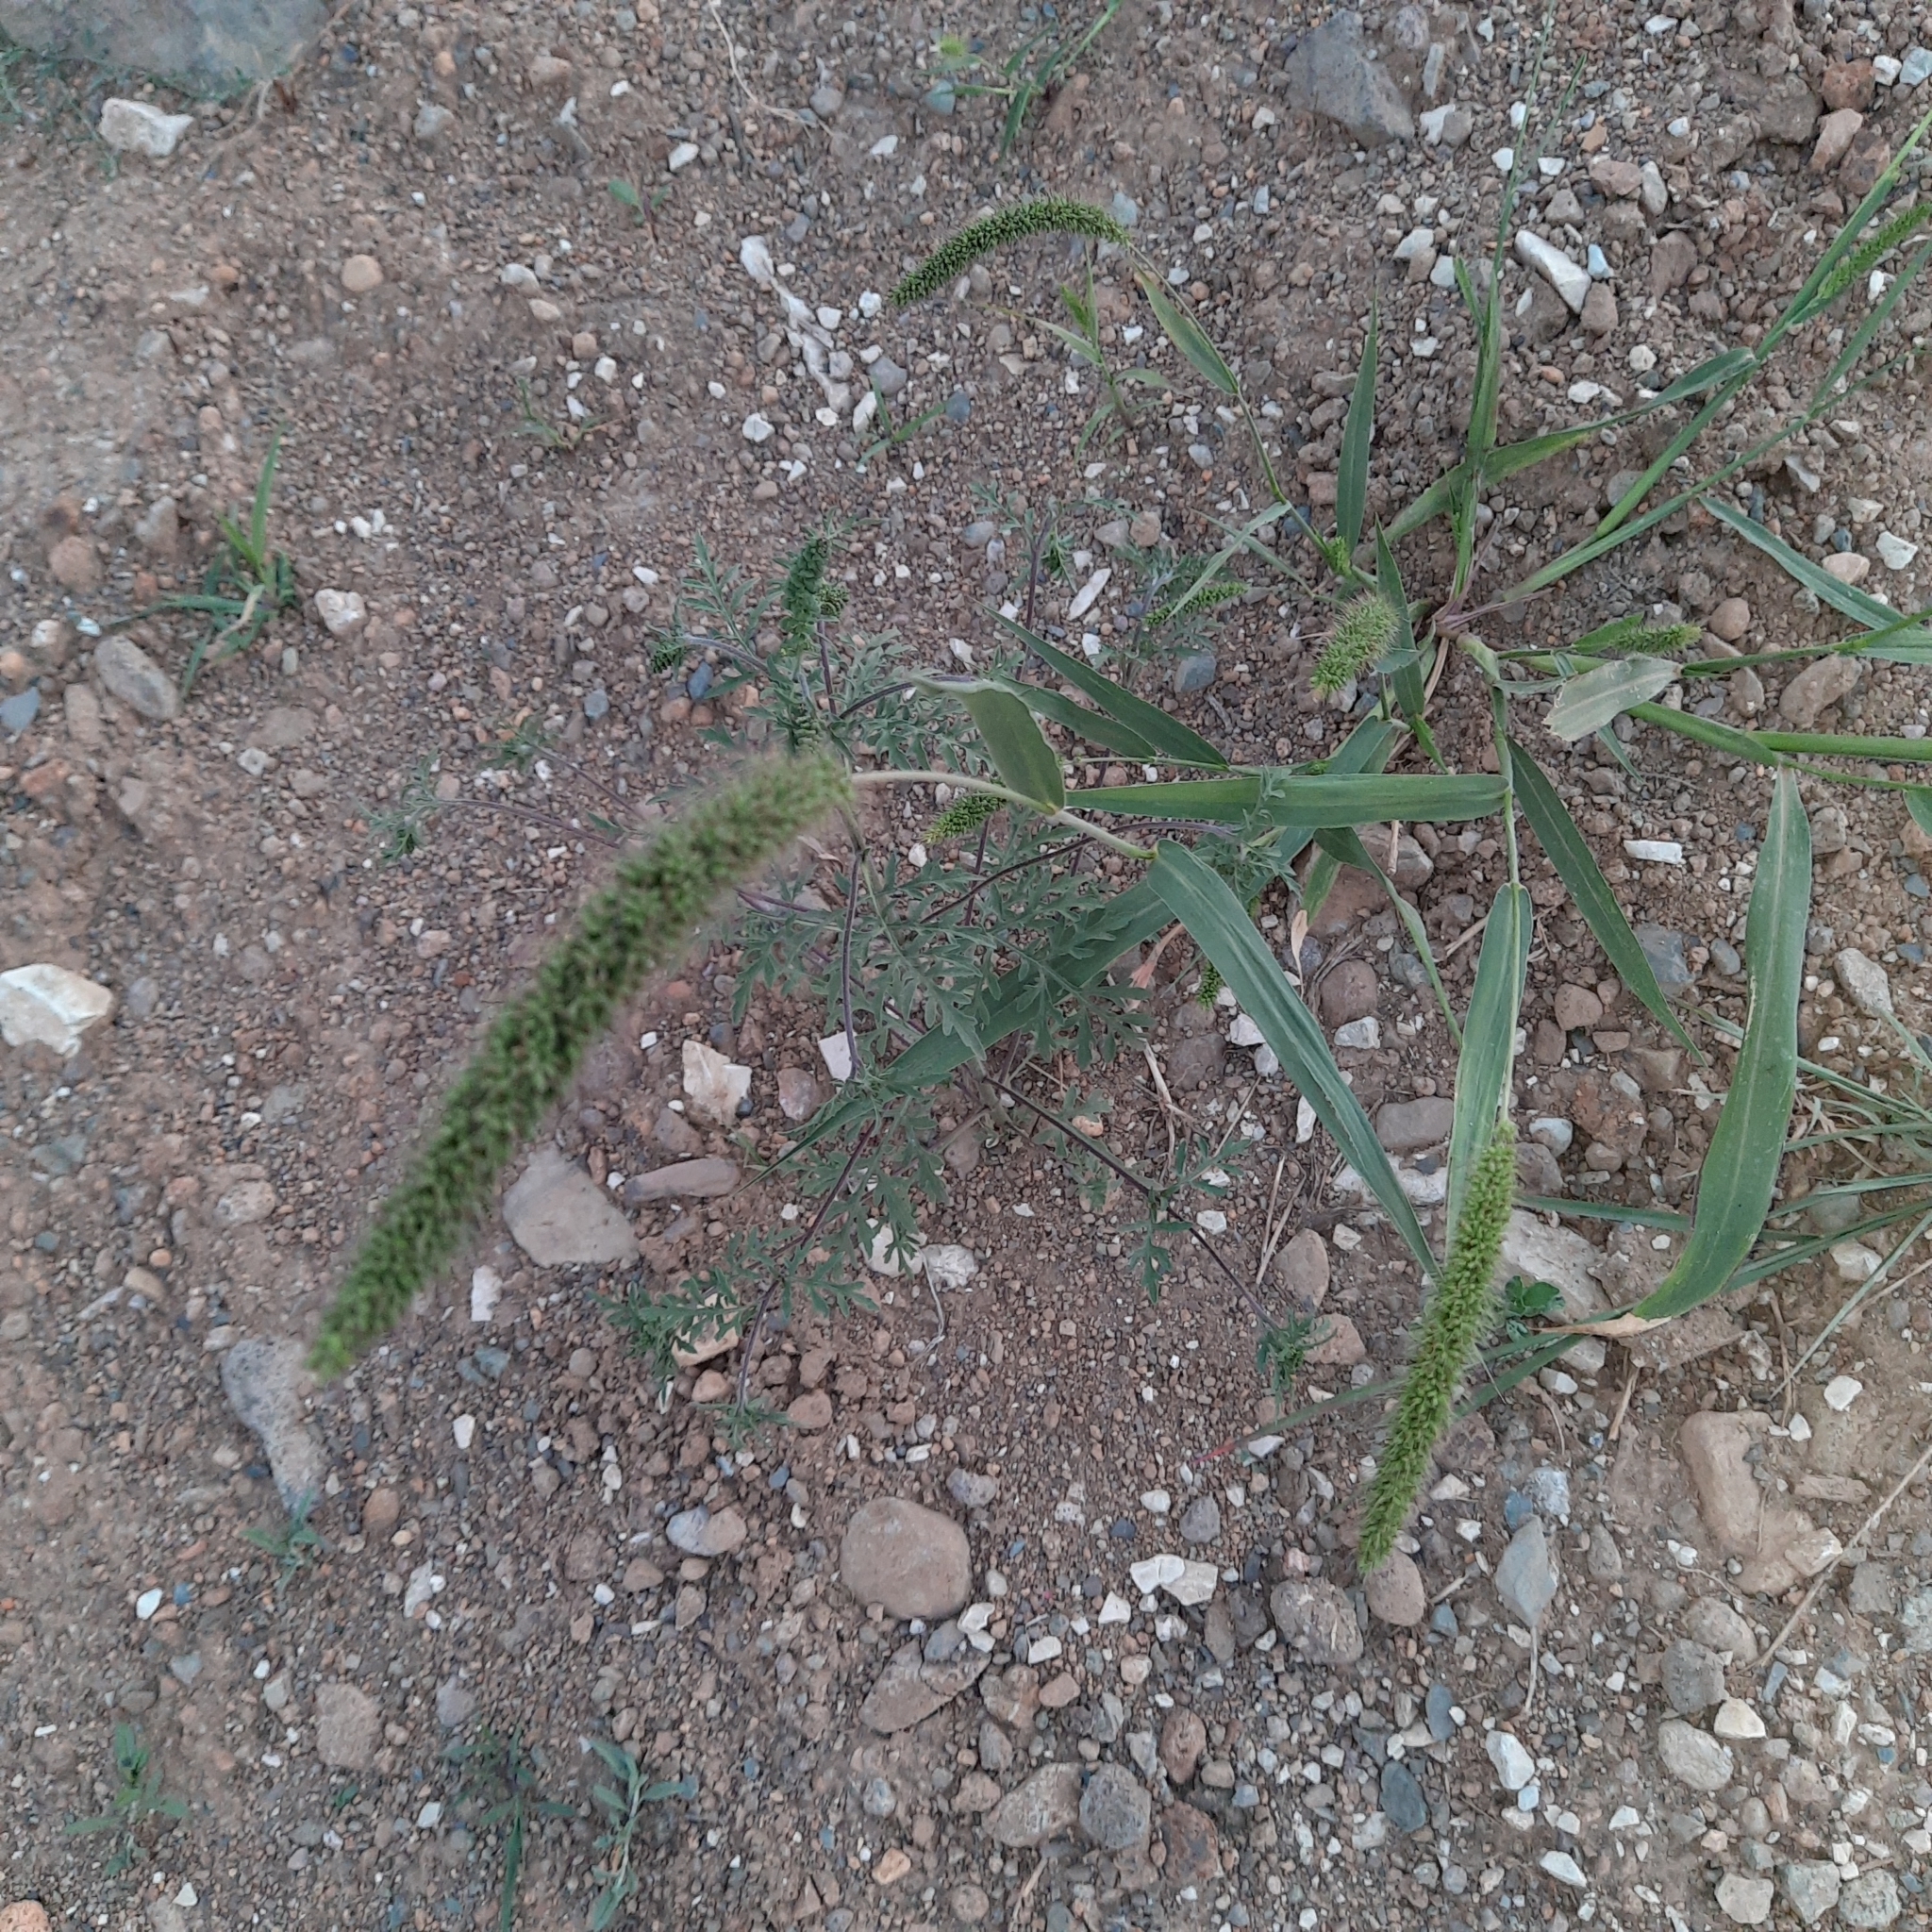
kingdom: Plantae
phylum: Tracheophyta
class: Liliopsida
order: Poales
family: Poaceae
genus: Setaria
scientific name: Setaria verticillata
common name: Hooked bristlegrass
